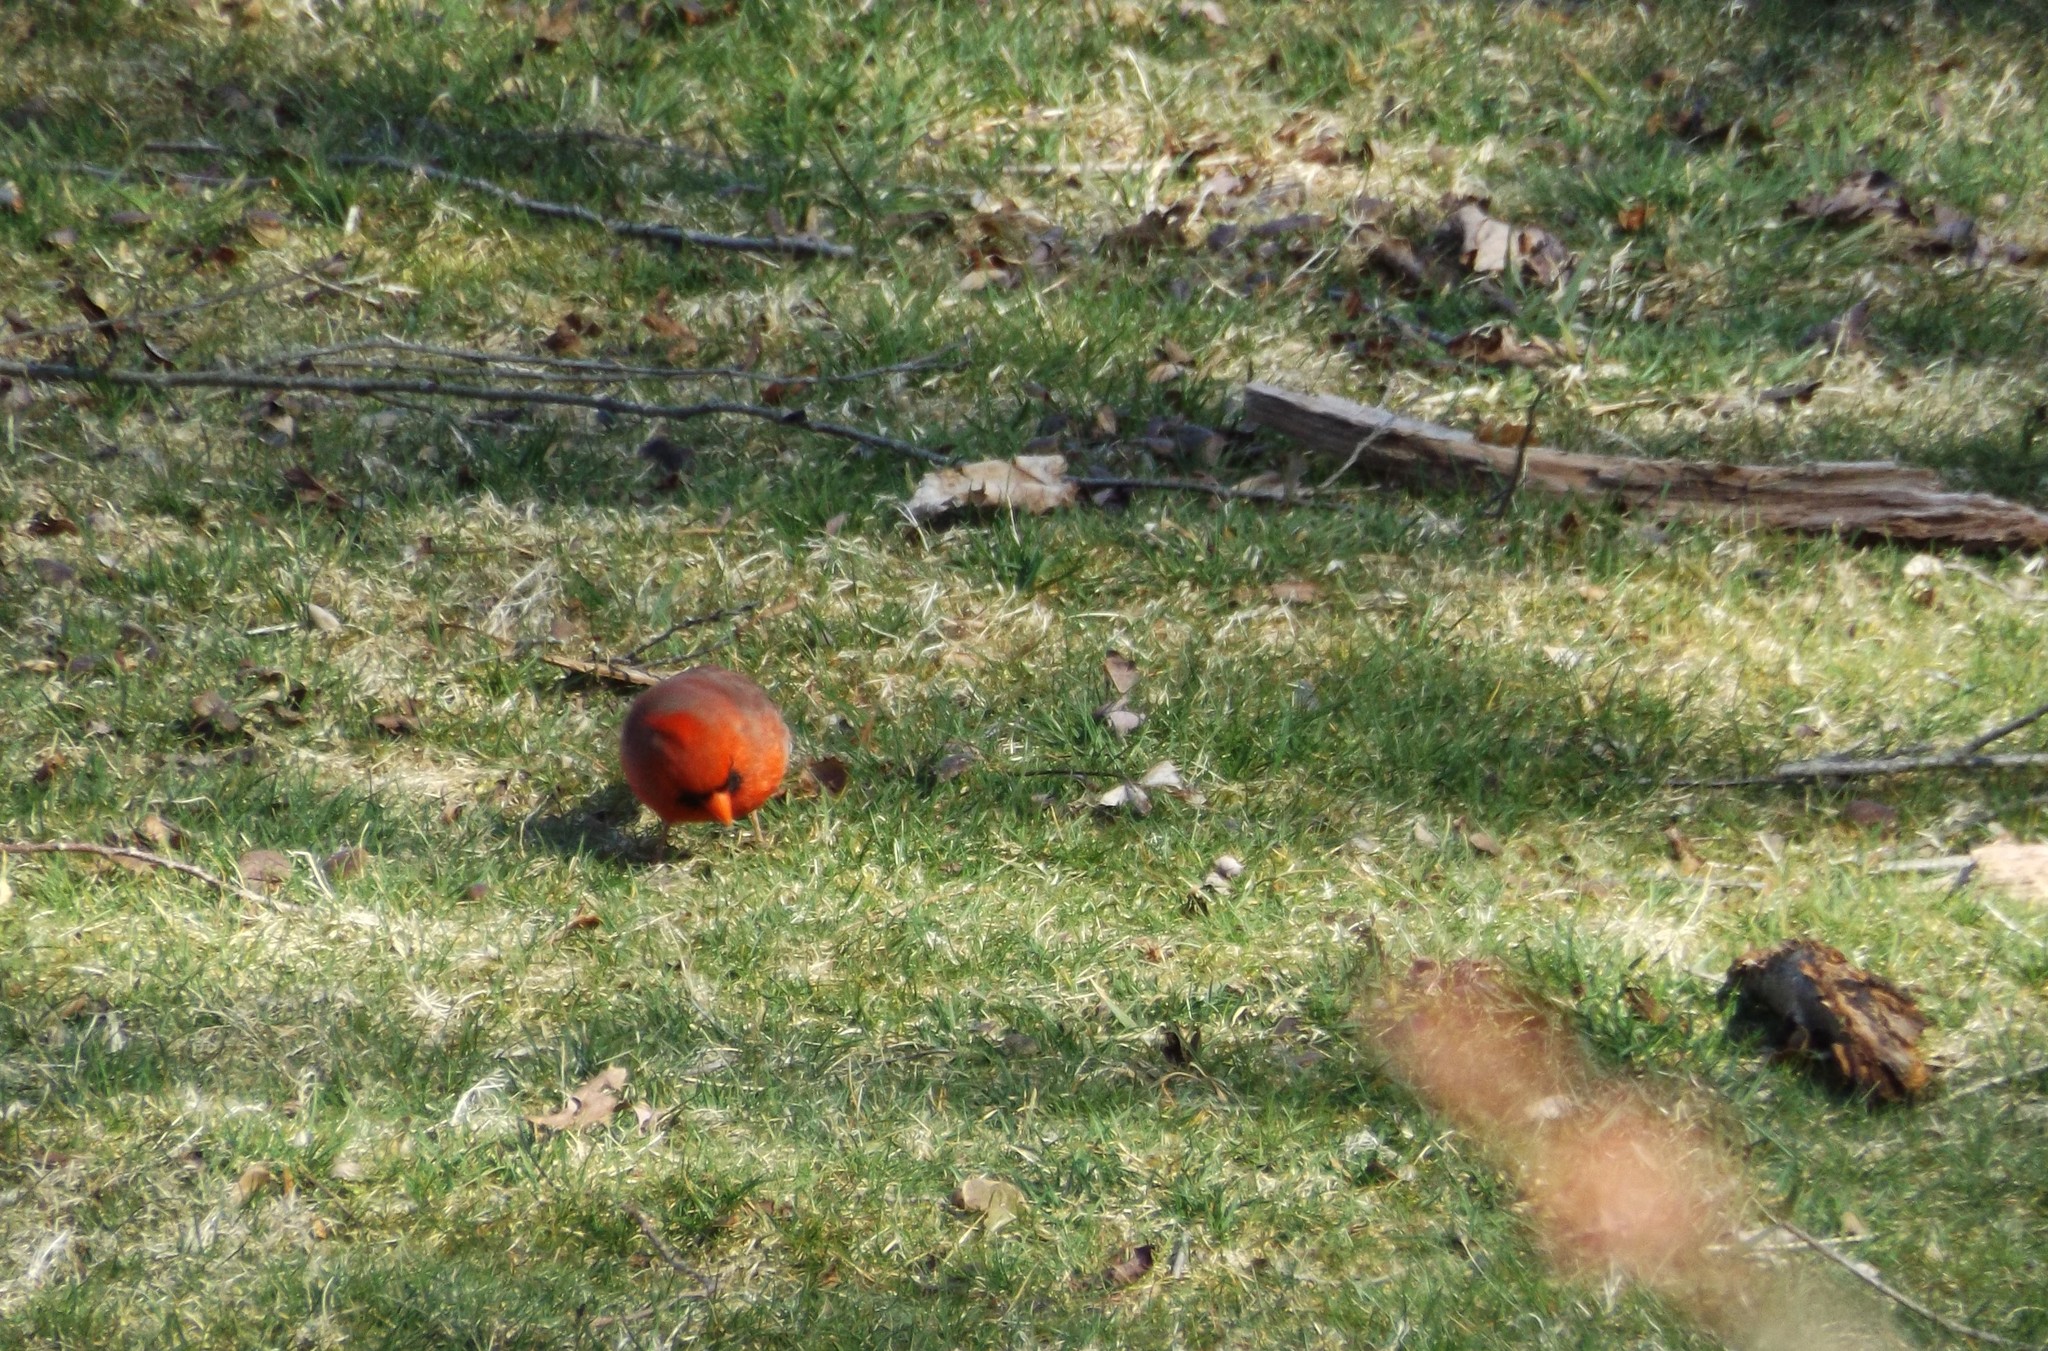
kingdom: Animalia
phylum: Chordata
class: Aves
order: Passeriformes
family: Cardinalidae
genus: Cardinalis
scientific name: Cardinalis cardinalis
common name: Northern cardinal
